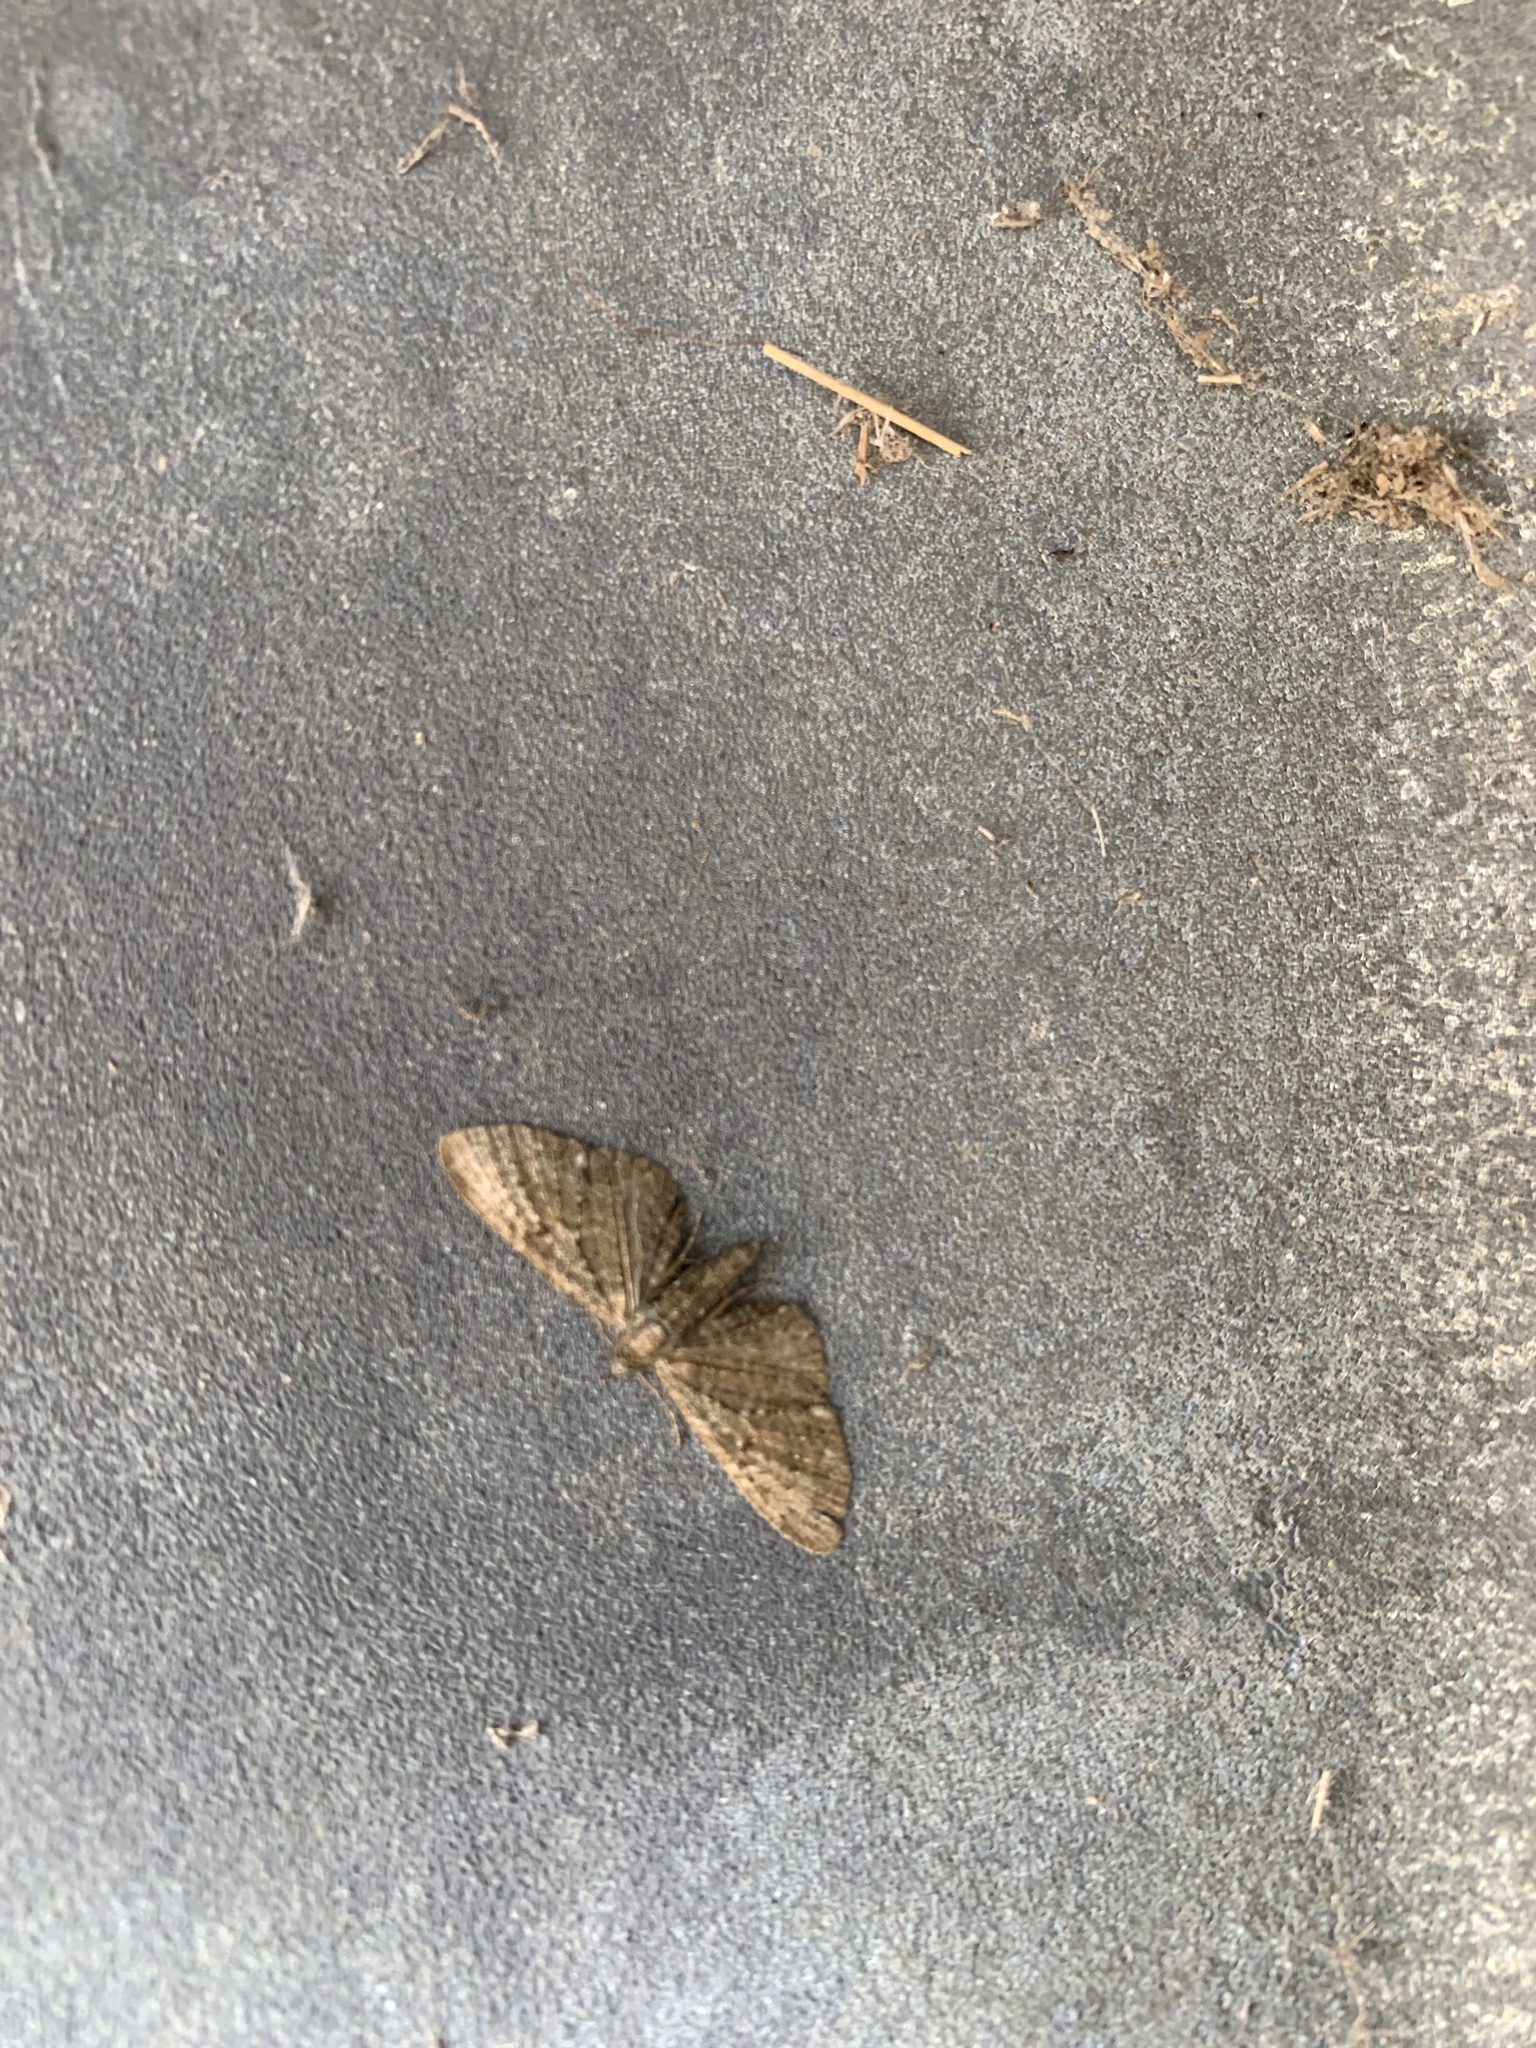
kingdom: Animalia
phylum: Arthropoda
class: Insecta
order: Lepidoptera
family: Geometridae
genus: Eupithecia
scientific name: Eupithecia vulgata
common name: Common pug
